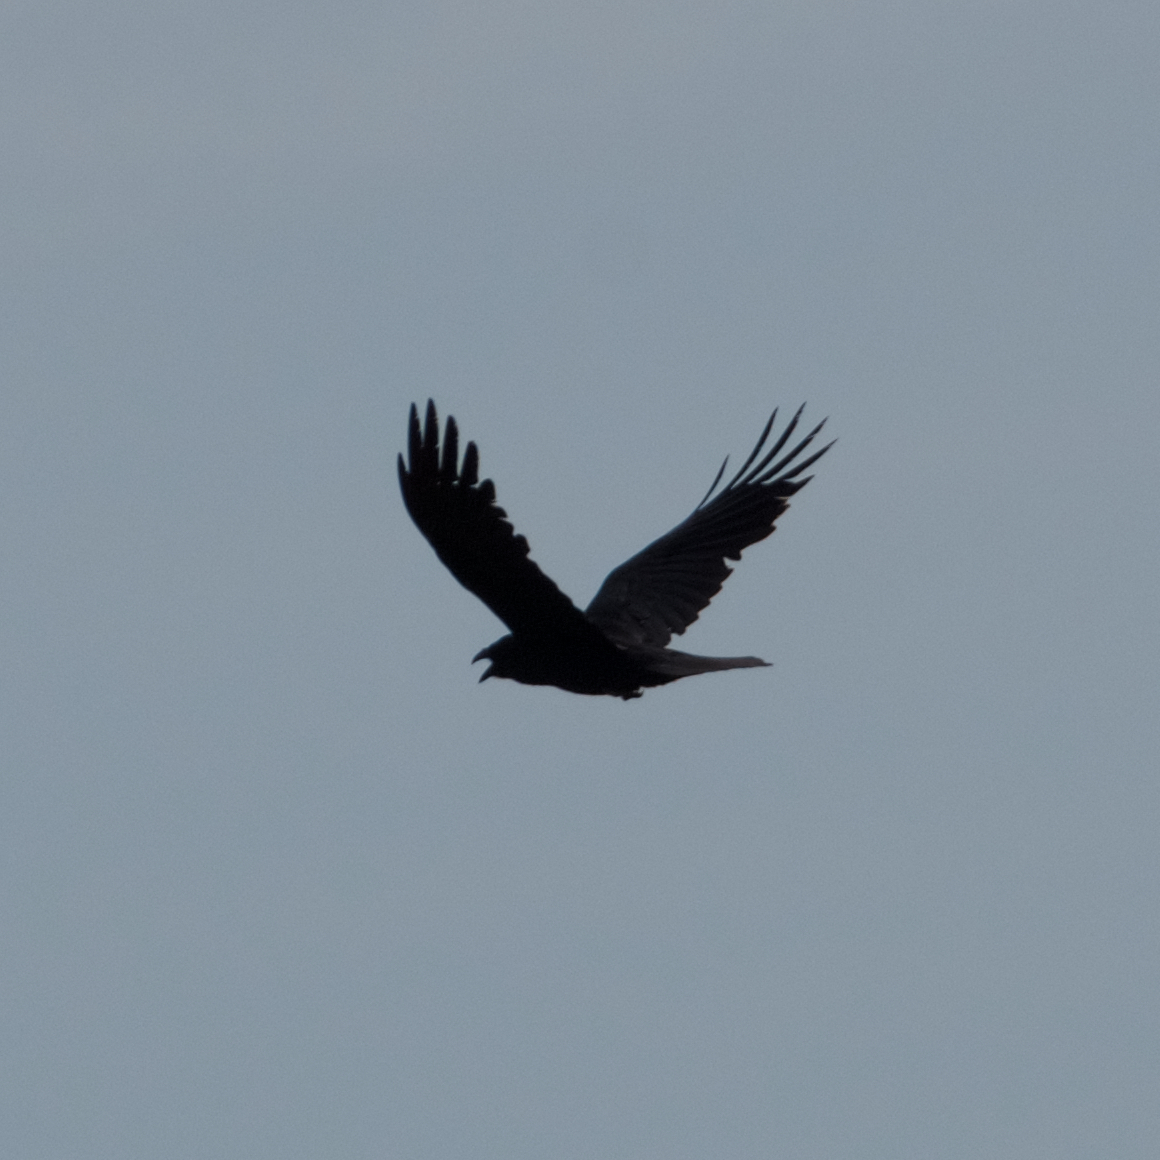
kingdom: Animalia
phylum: Chordata
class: Aves
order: Passeriformes
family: Corvidae
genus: Corvus
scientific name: Corvus corax
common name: Common raven
